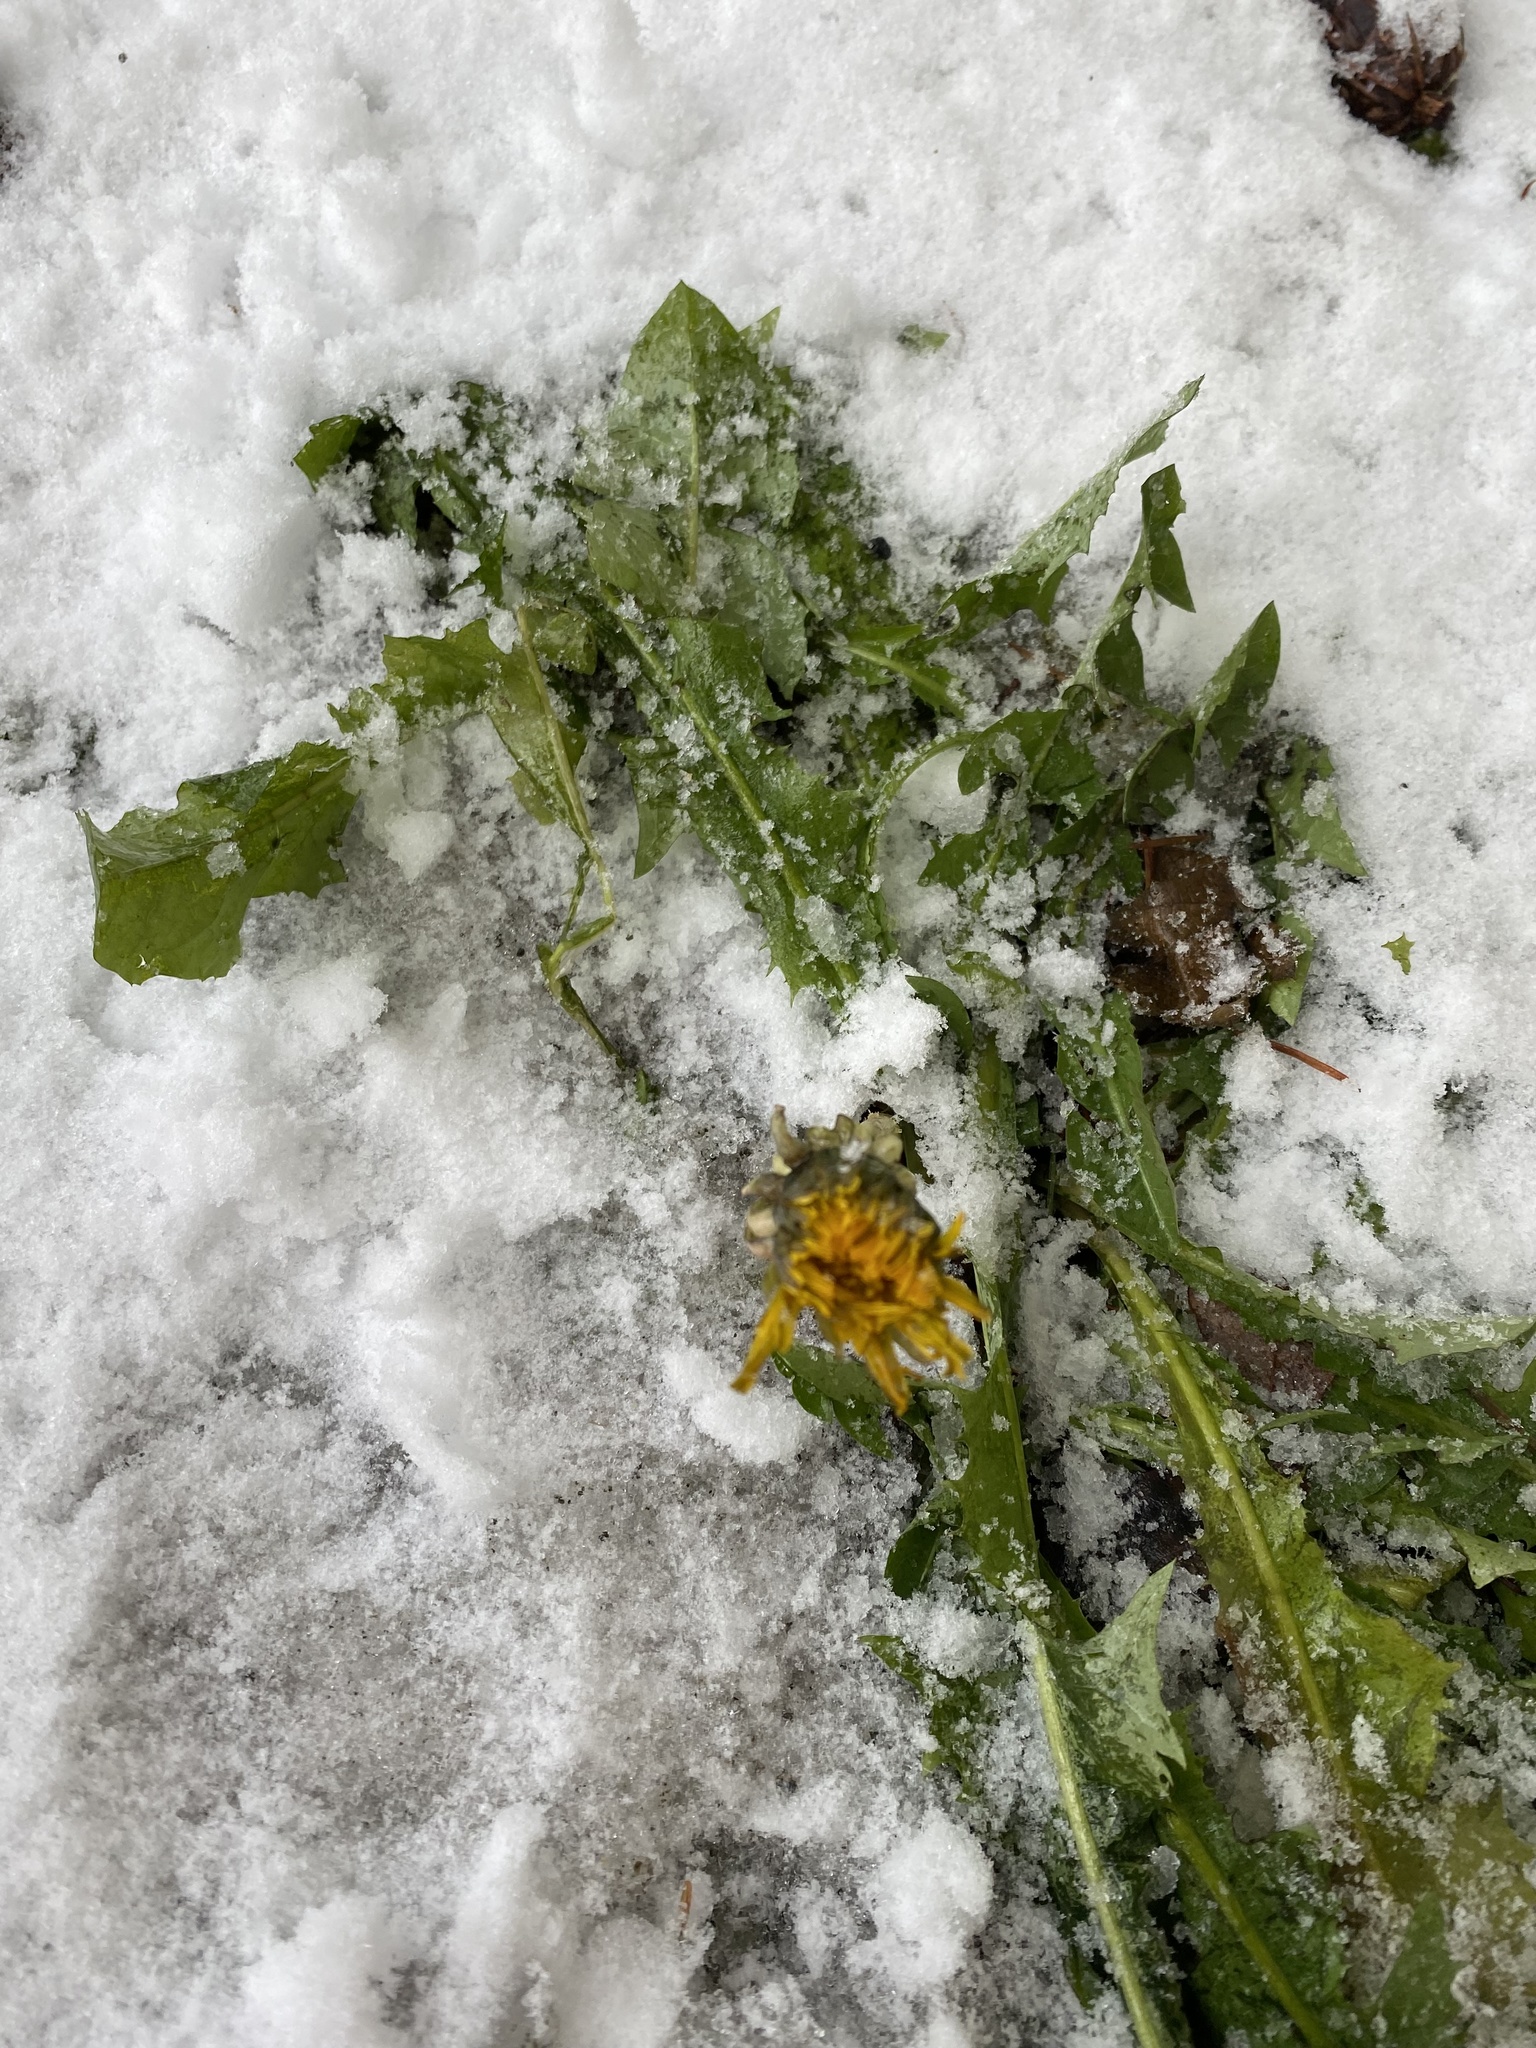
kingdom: Plantae
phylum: Tracheophyta
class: Magnoliopsida
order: Asterales
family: Asteraceae
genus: Taraxacum
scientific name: Taraxacum officinale
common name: Common dandelion
